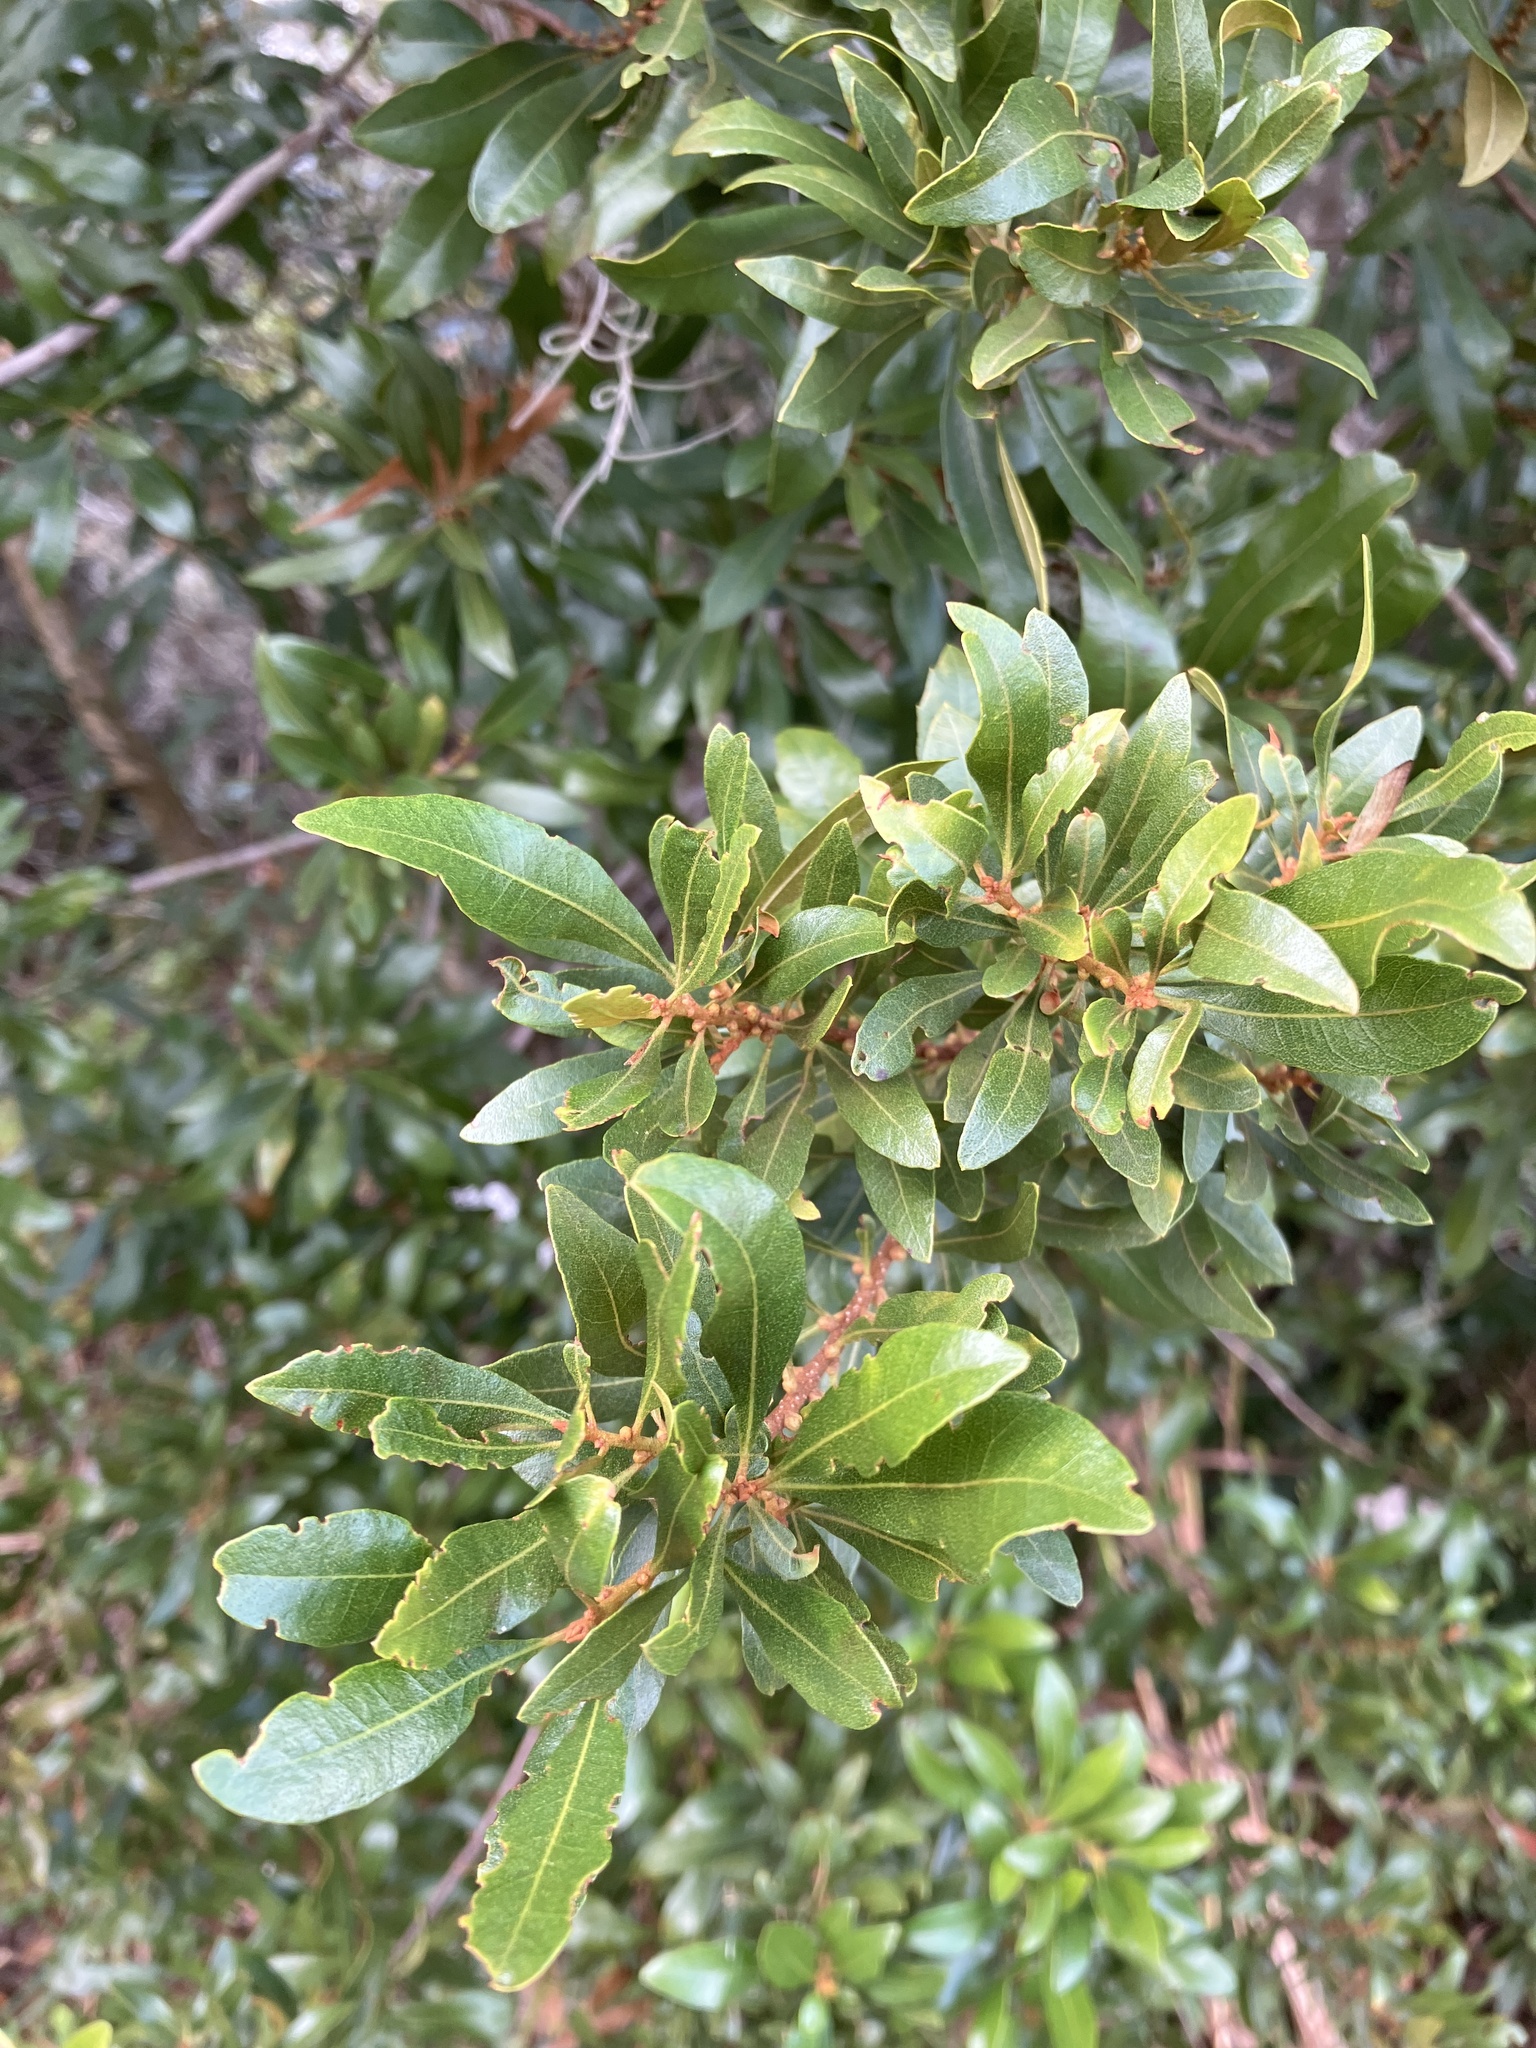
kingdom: Plantae
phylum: Tracheophyta
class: Magnoliopsida
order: Fagales
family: Myricaceae
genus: Morella
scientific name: Morella cerifera
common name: Wax myrtle
